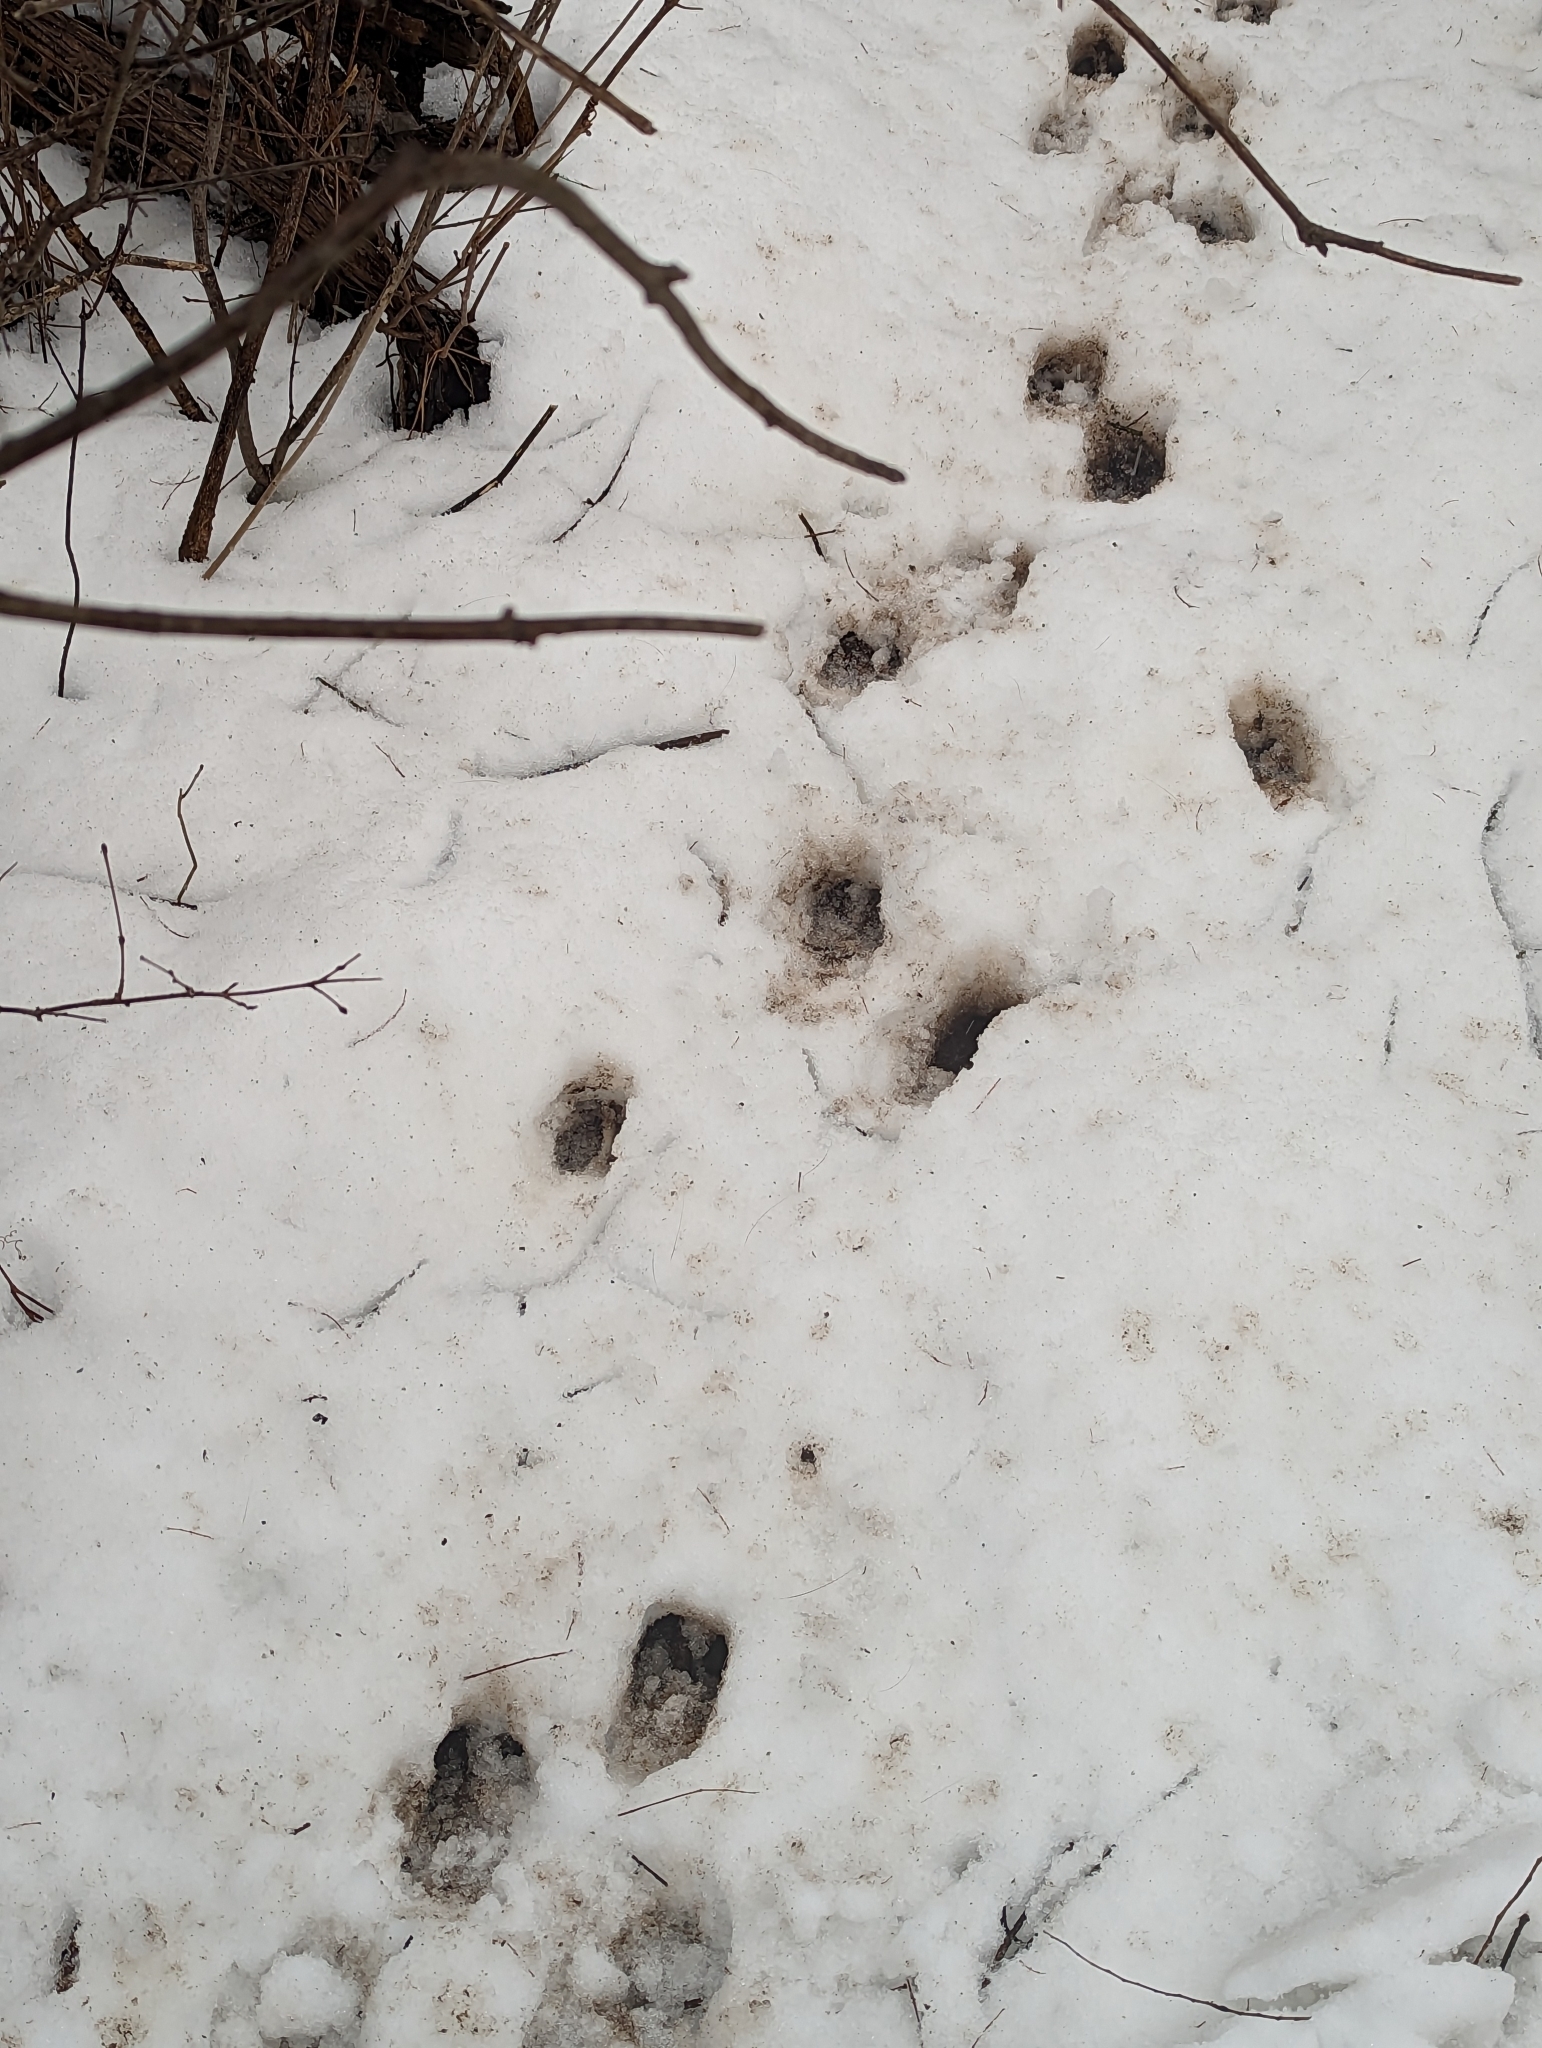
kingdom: Animalia
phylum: Chordata
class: Mammalia
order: Artiodactyla
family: Cervidae
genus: Odocoileus
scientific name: Odocoileus virginianus
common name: White-tailed deer
